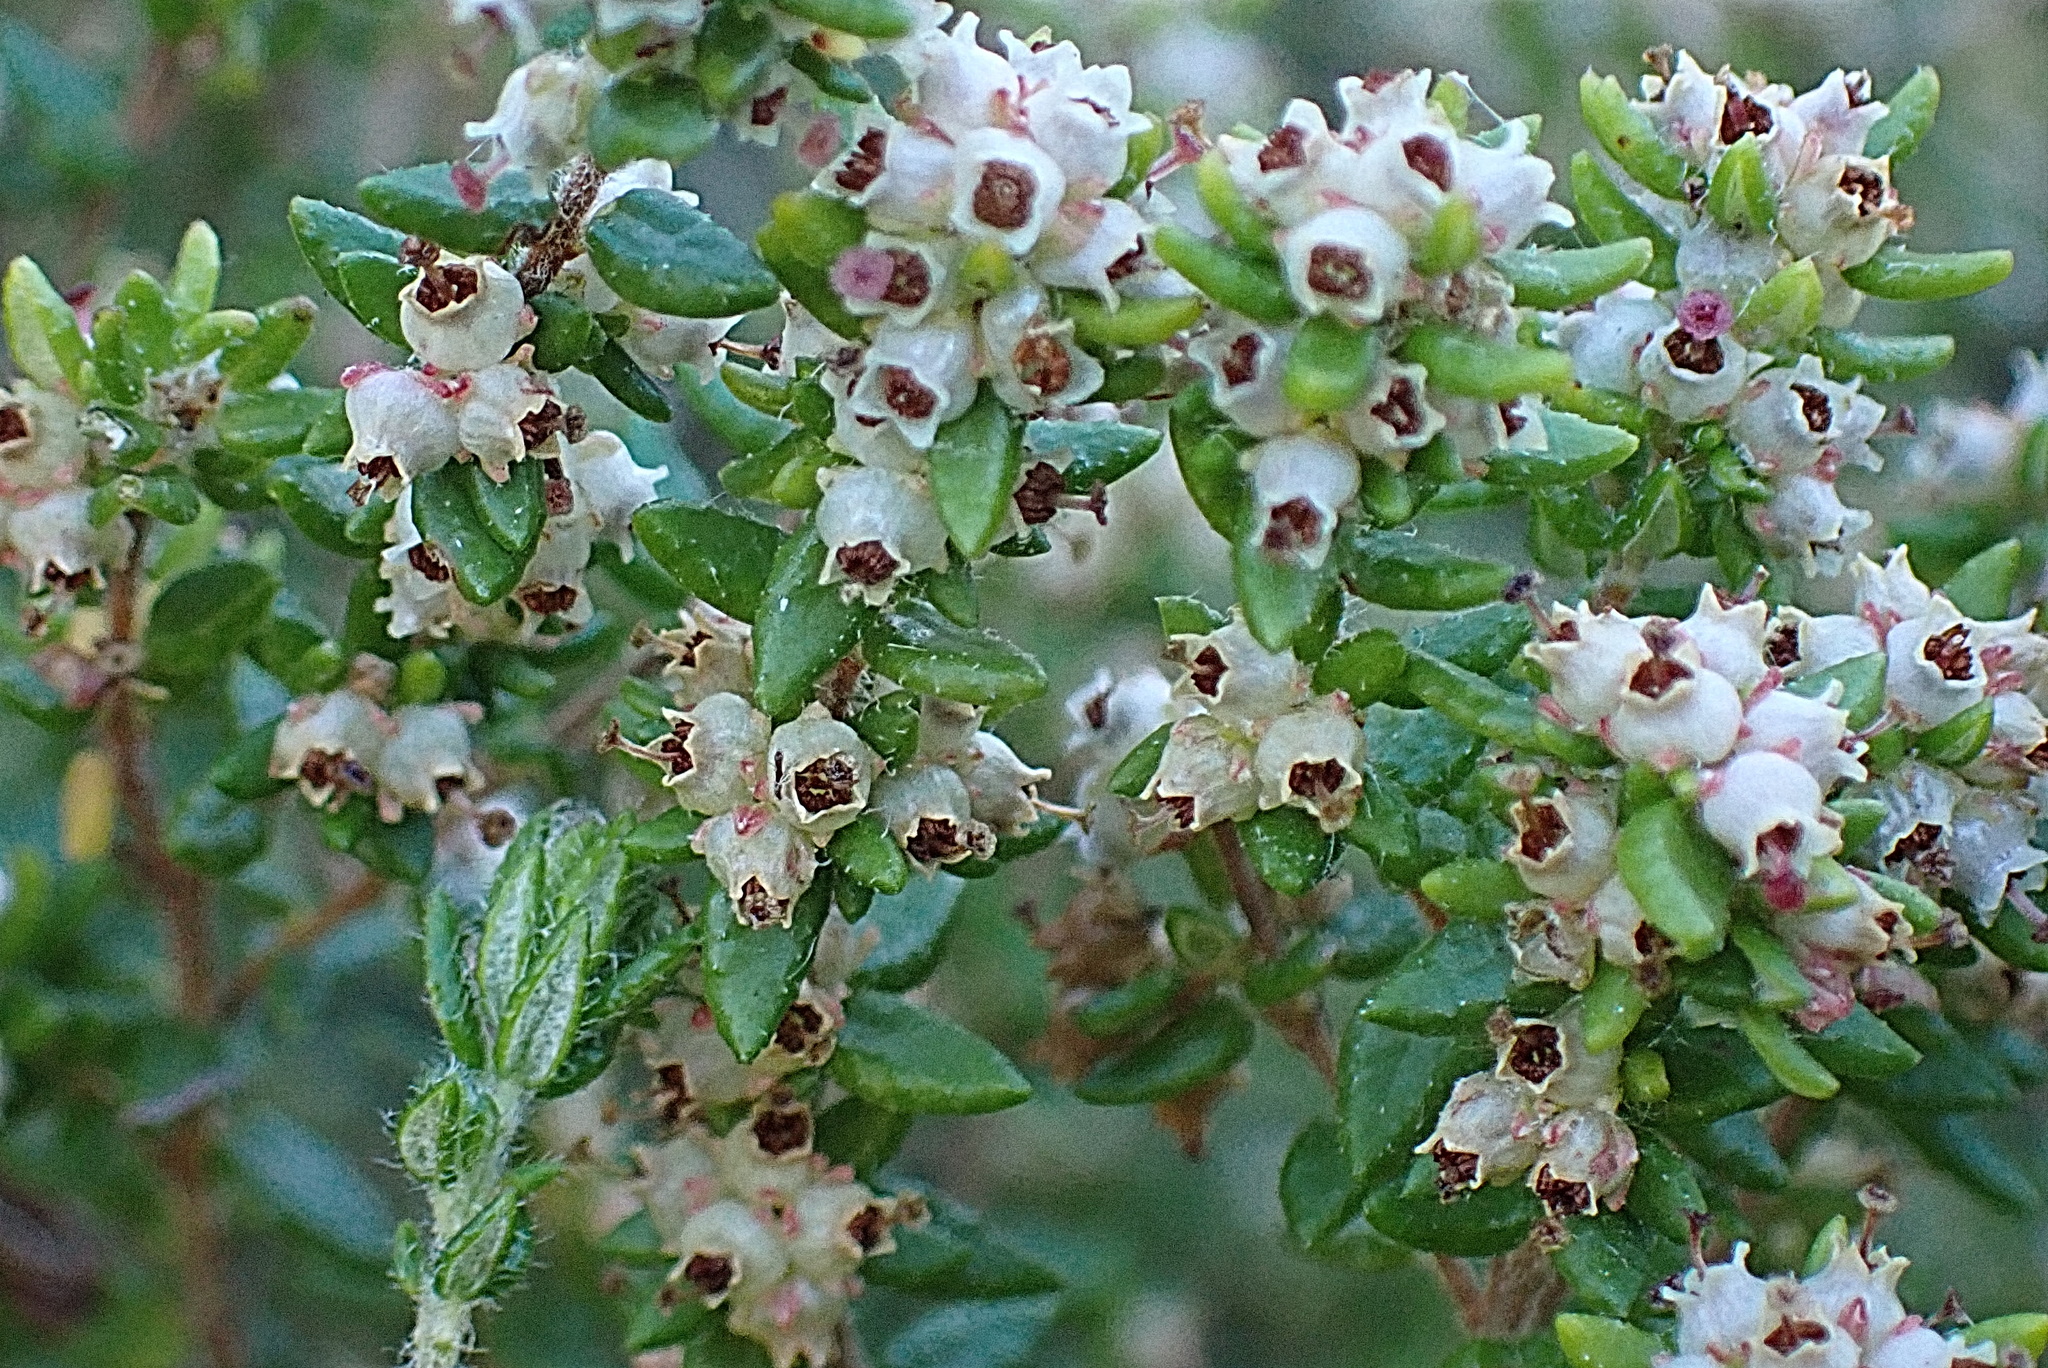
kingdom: Plantae
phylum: Tracheophyta
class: Magnoliopsida
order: Ericales
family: Ericaceae
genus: Erica
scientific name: Erica cordata
